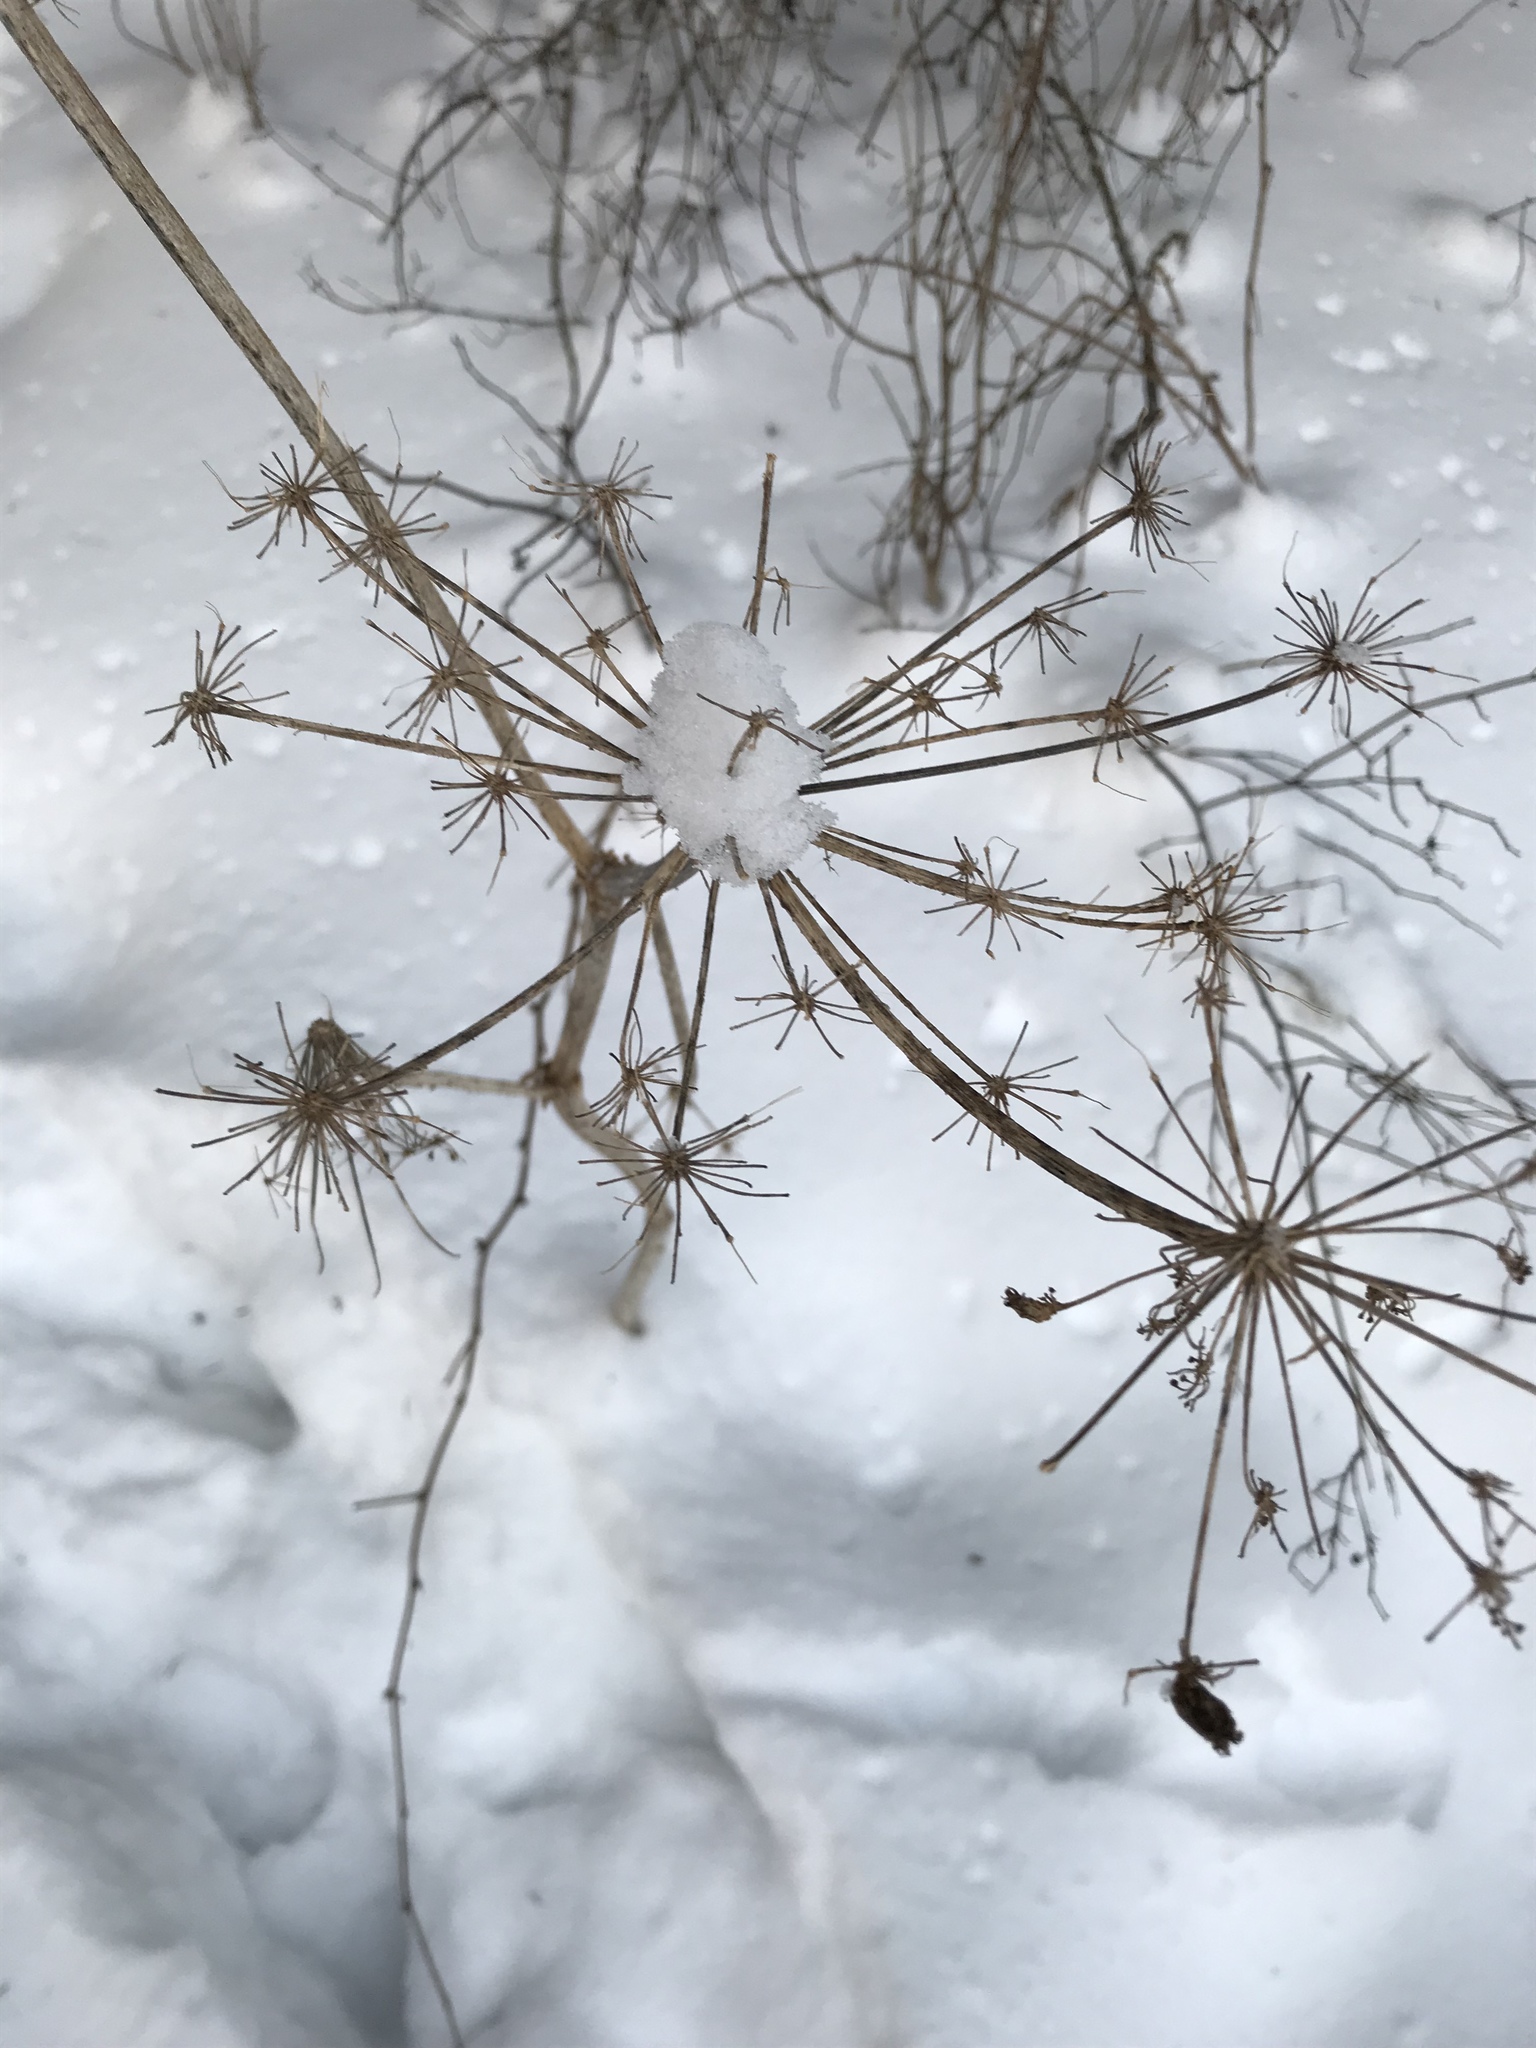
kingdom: Plantae
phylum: Tracheophyta
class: Magnoliopsida
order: Apiales
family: Apiaceae
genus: Heracleum
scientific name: Heracleum maximum
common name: American cow parsnip
